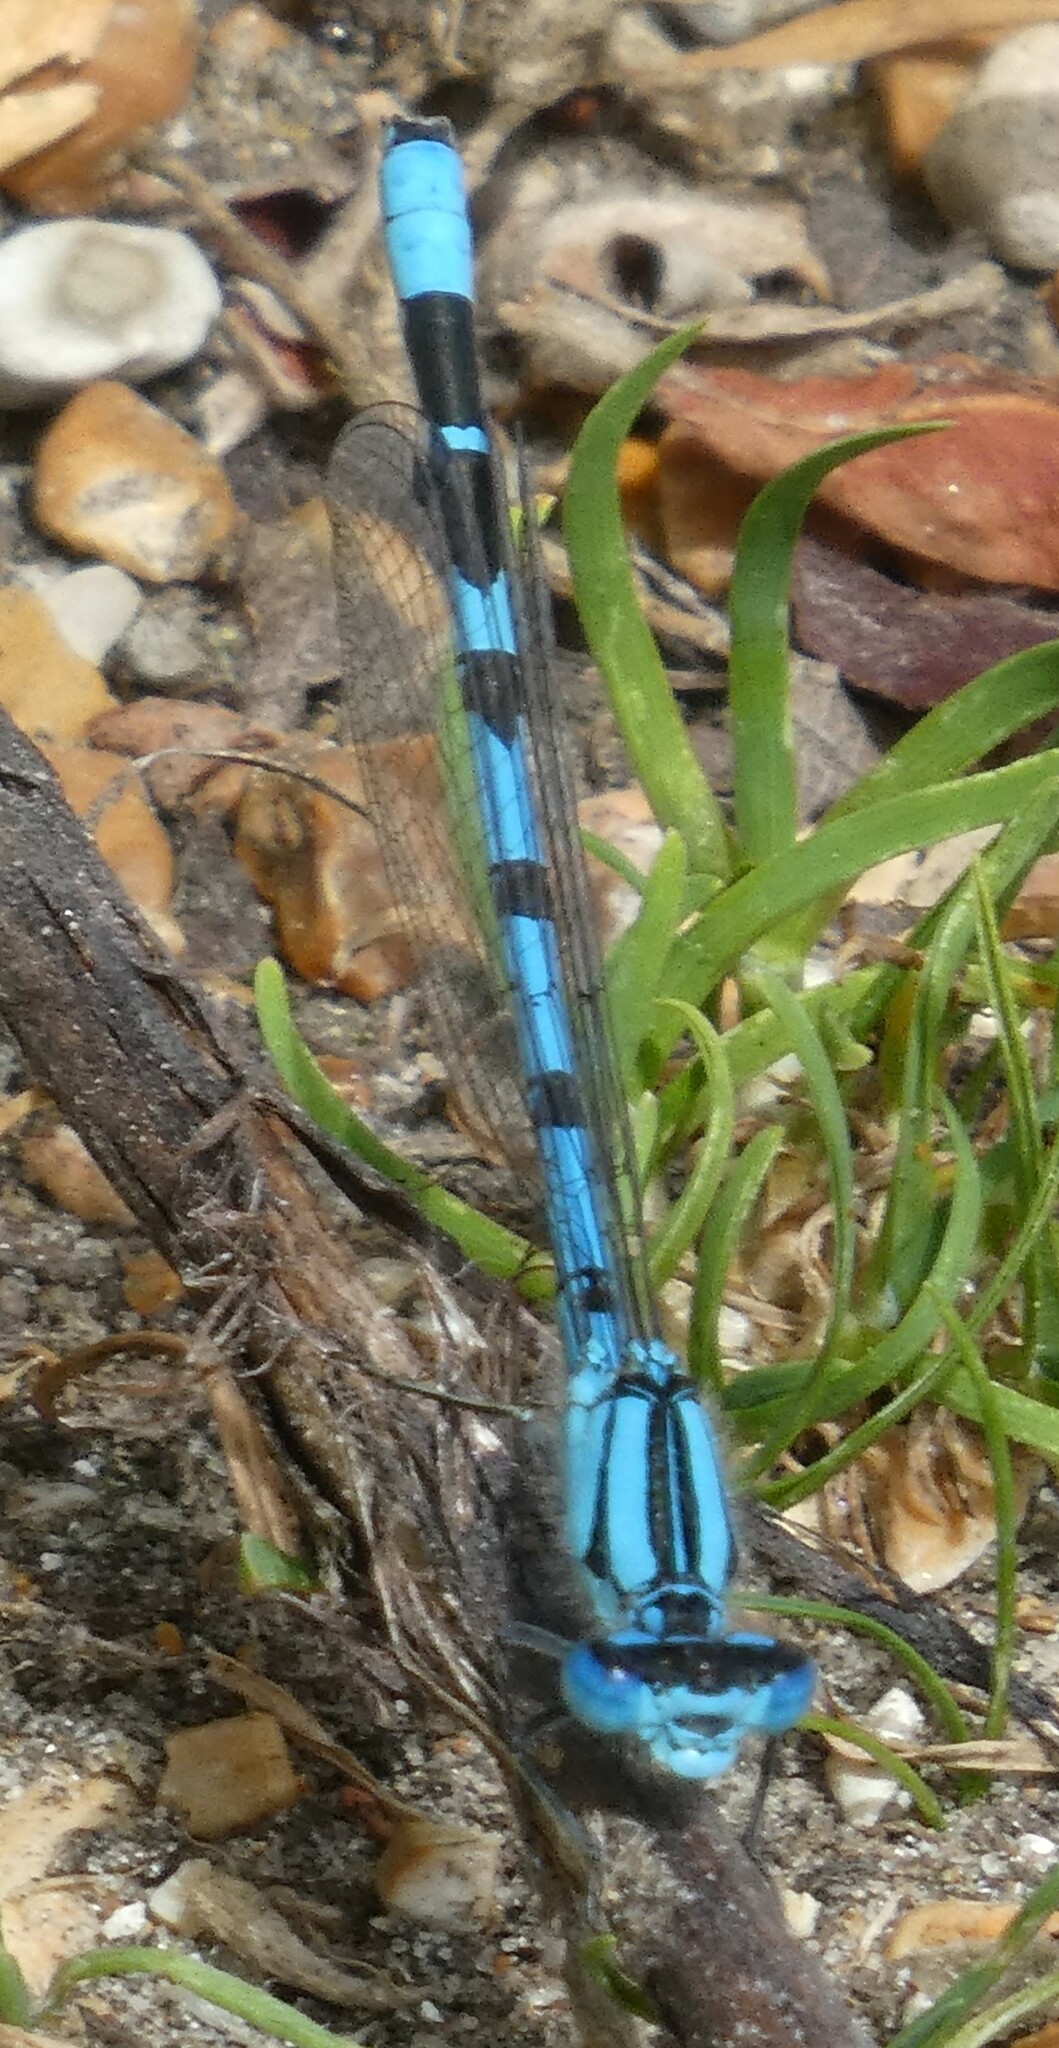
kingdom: Animalia
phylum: Arthropoda
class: Insecta
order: Odonata
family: Coenagrionidae
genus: Enallagma
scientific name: Enallagma cyathigerum
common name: Common blue damselfly
